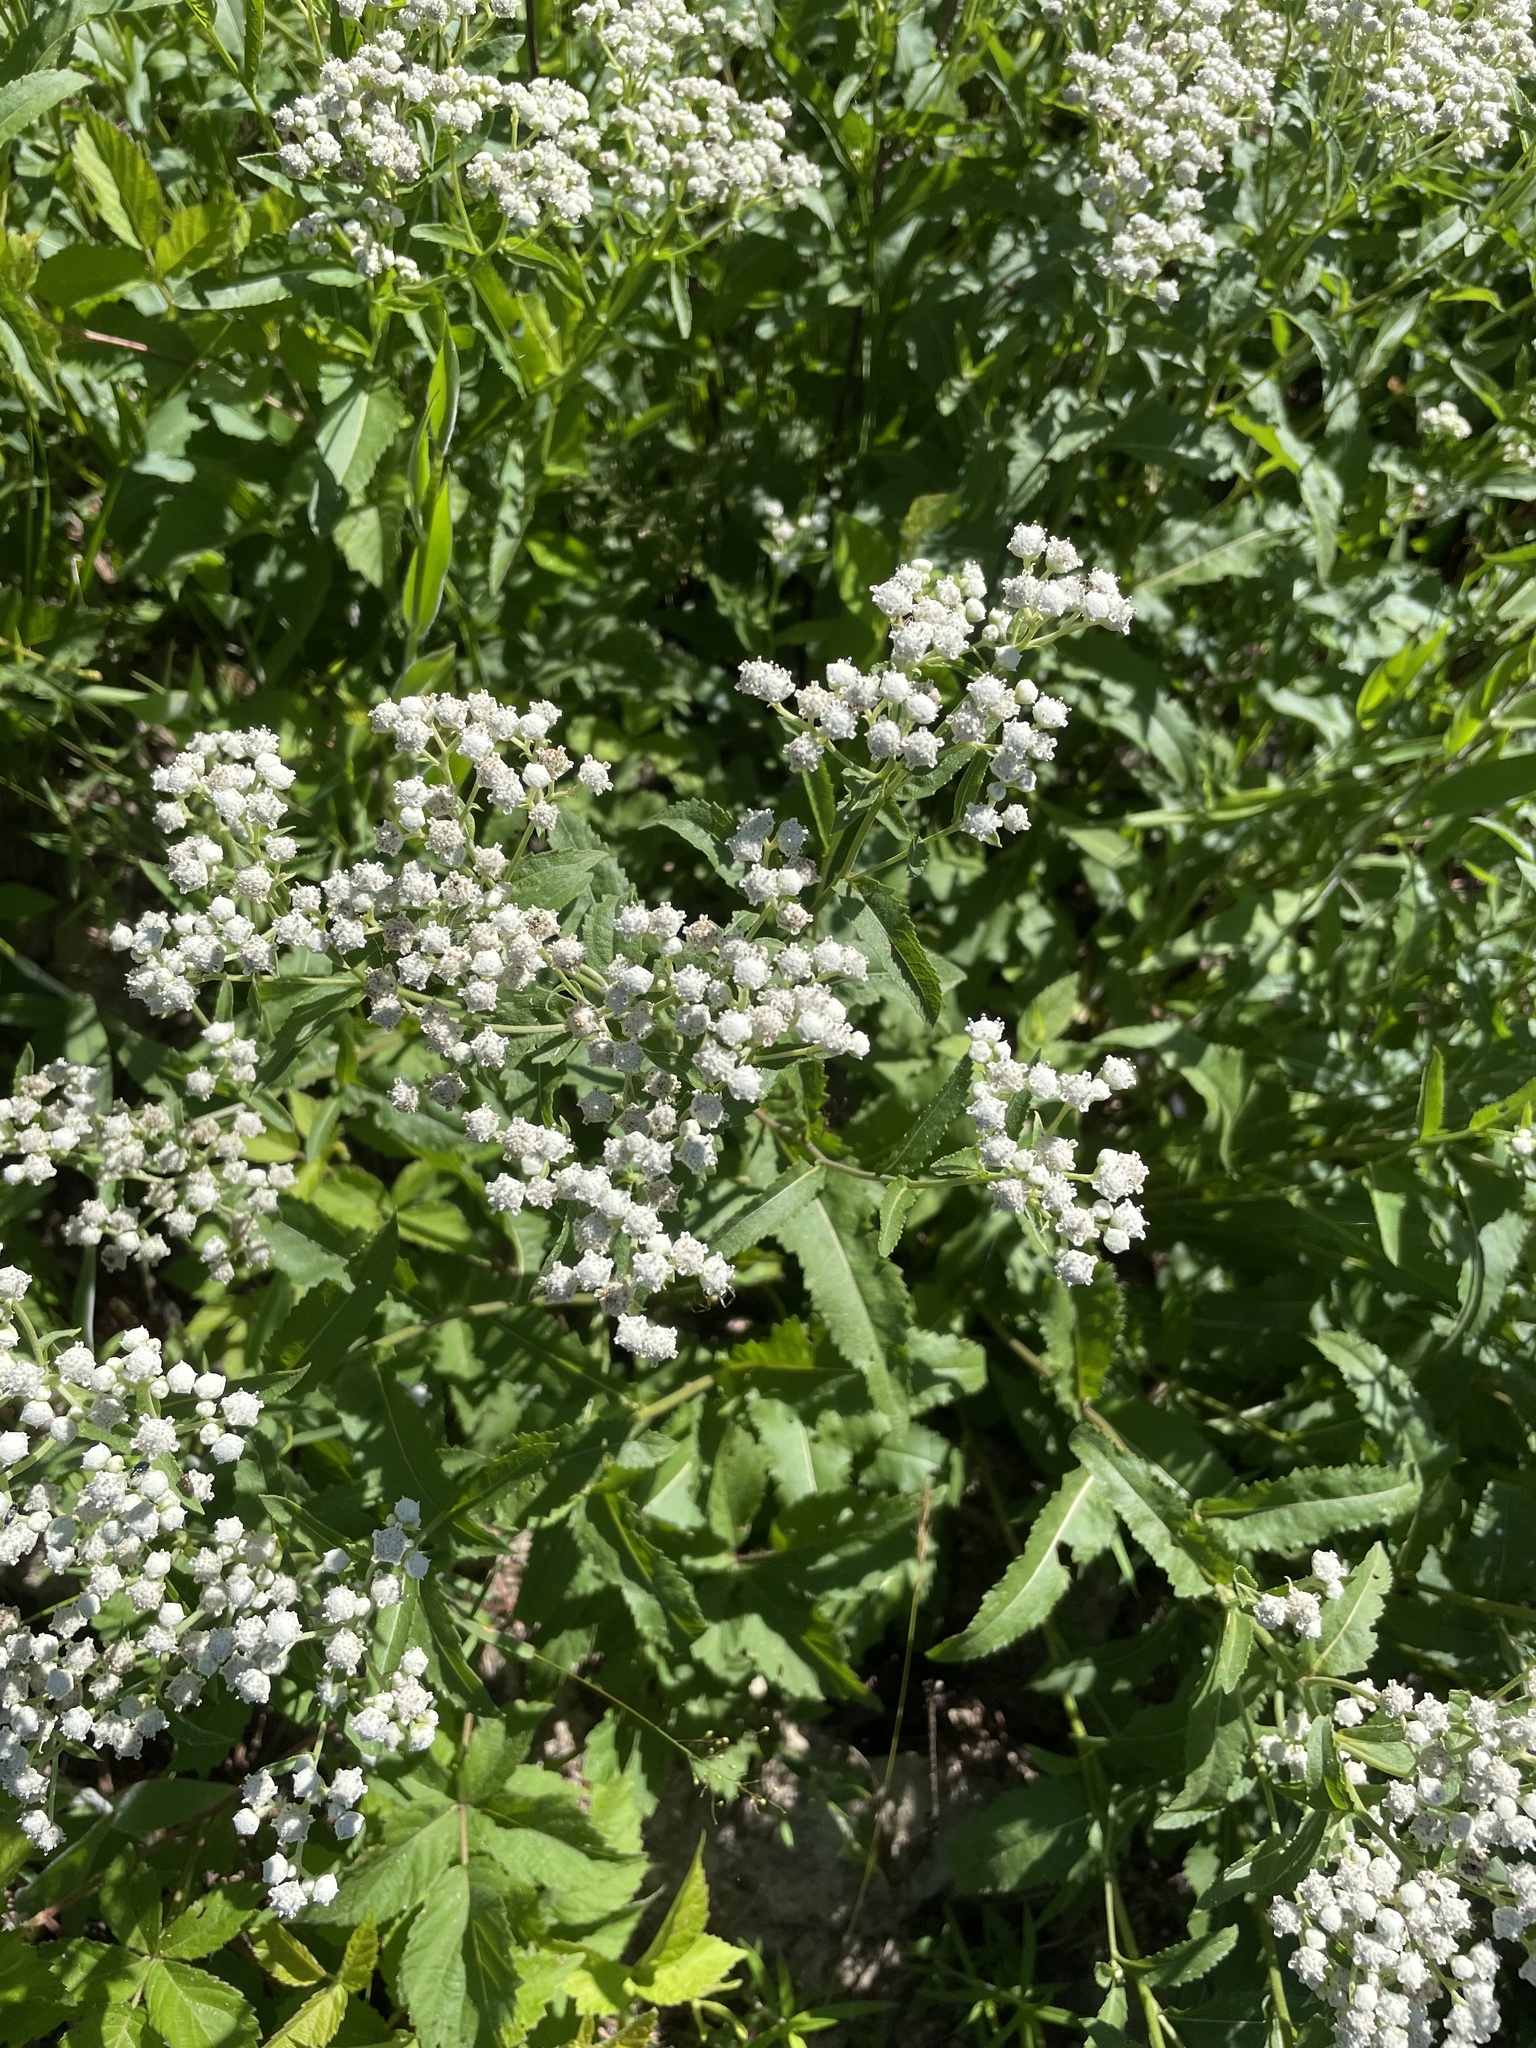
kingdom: Plantae
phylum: Tracheophyta
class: Magnoliopsida
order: Asterales
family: Asteraceae
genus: Parthenium
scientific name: Parthenium integrifolium
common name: American feverfew
